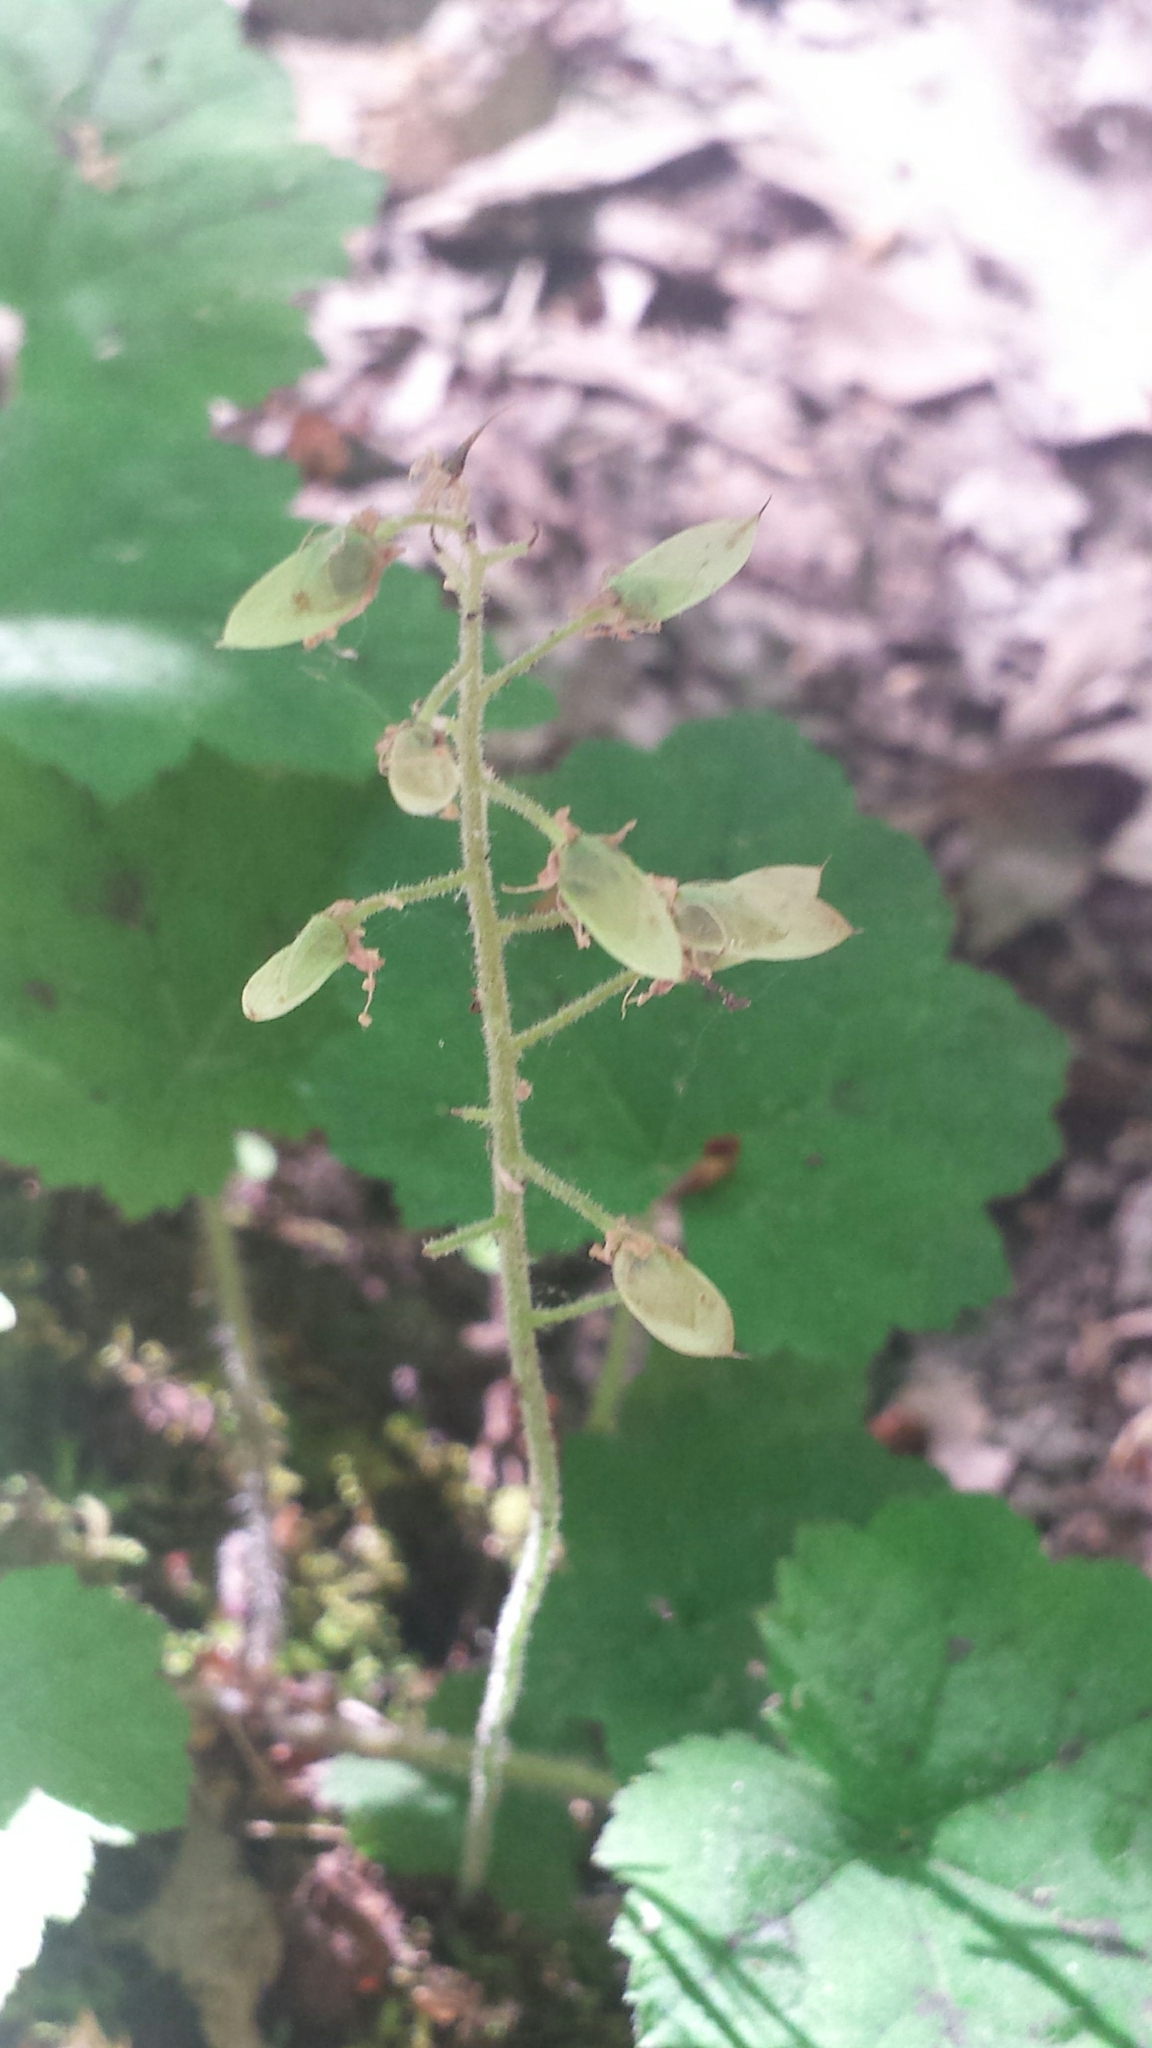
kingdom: Plantae
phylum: Tracheophyta
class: Magnoliopsida
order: Saxifragales
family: Saxifragaceae
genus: Tiarella
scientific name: Tiarella stolonifera
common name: Stoloniferous foamflower
